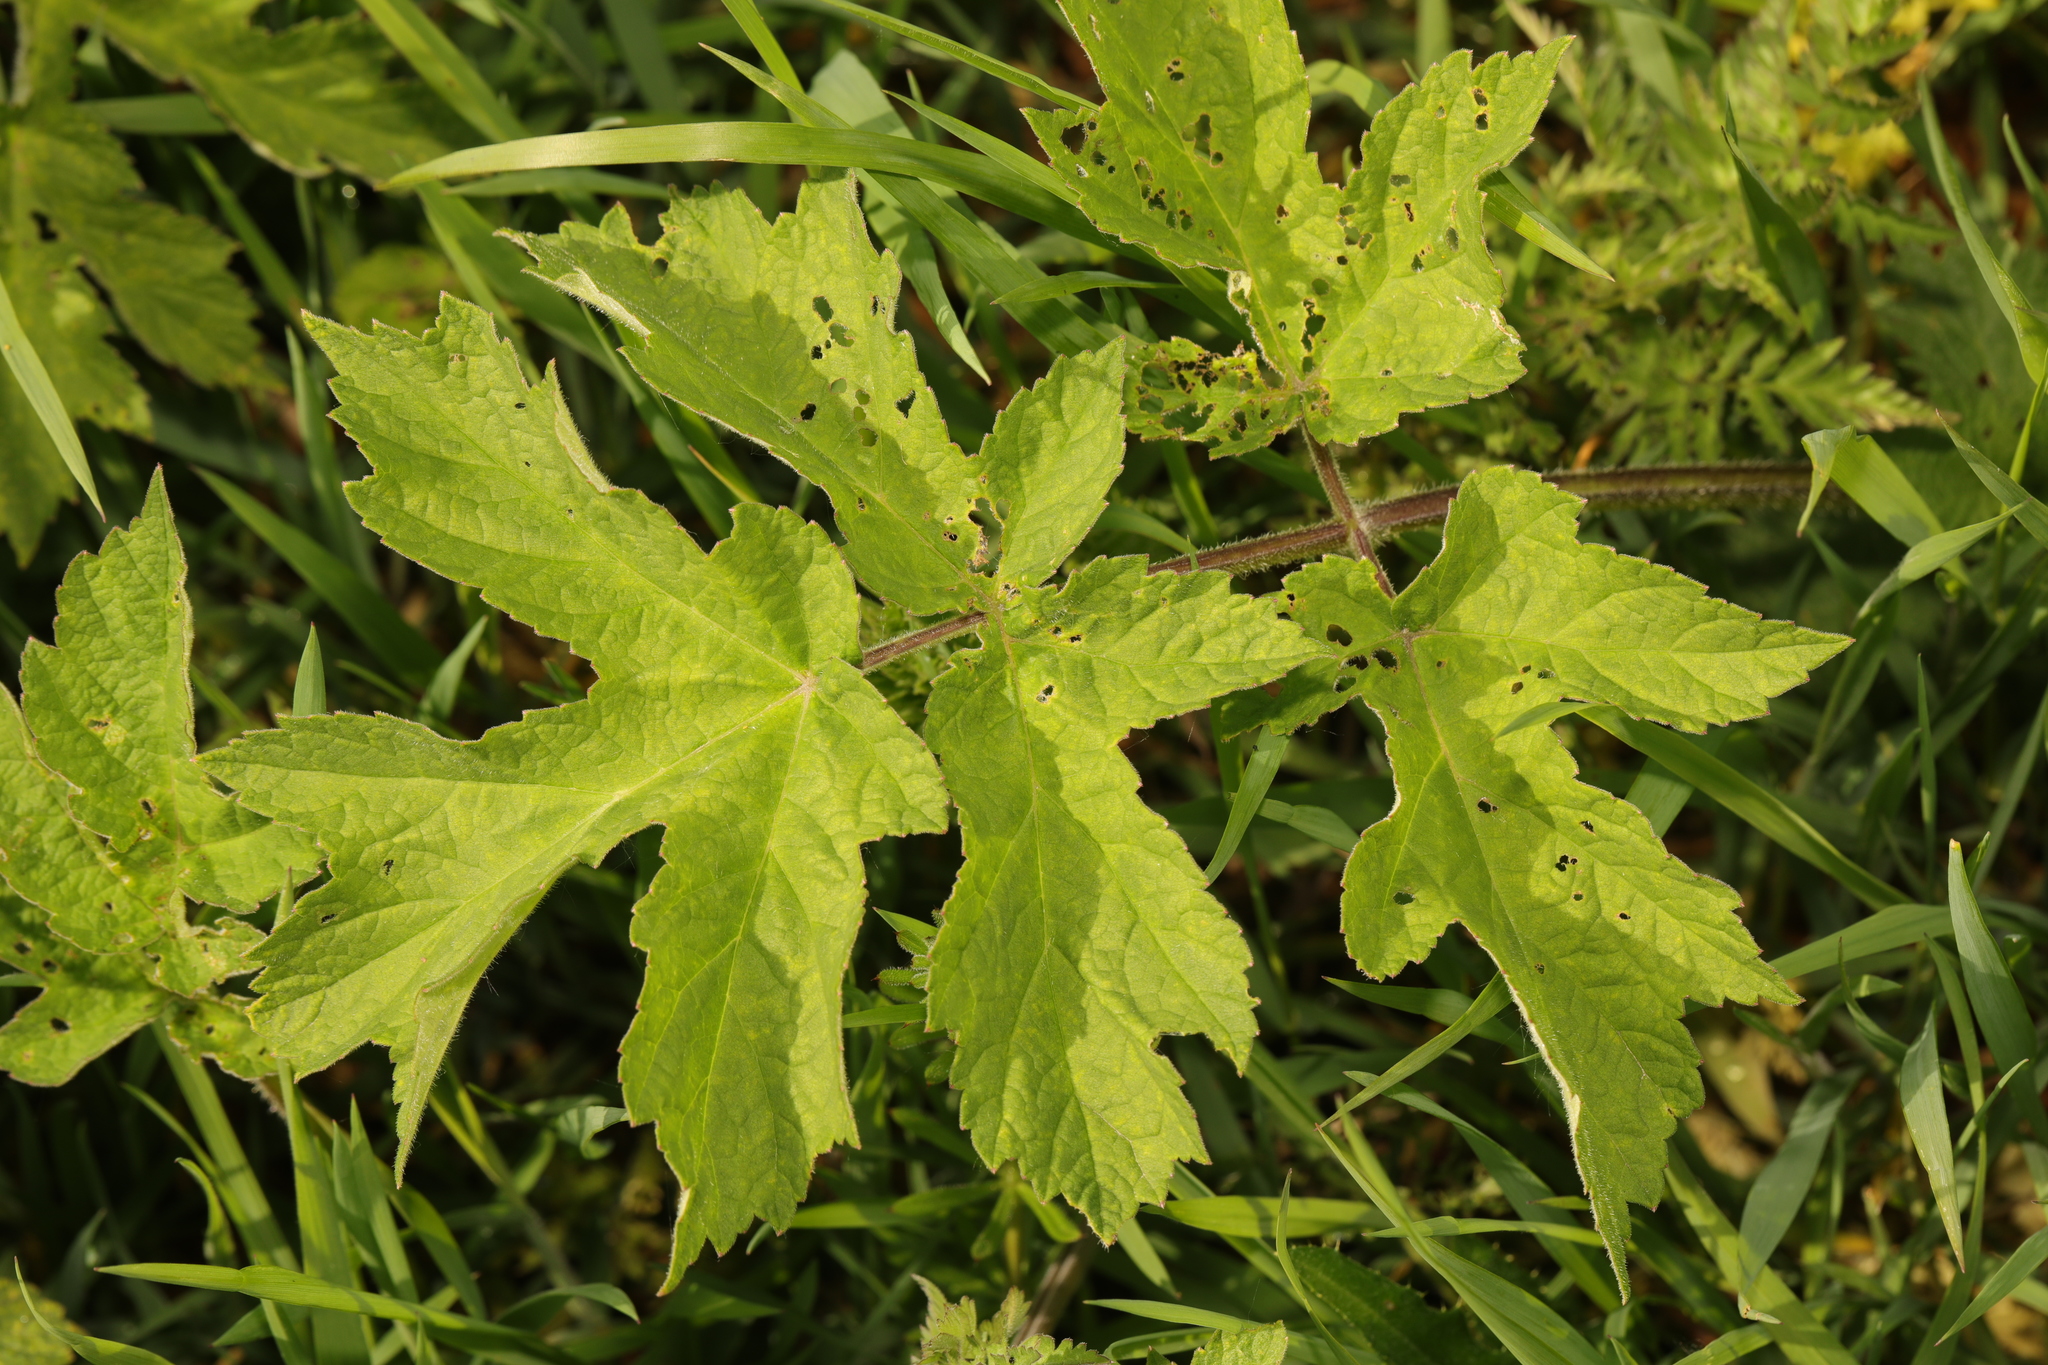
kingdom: Plantae
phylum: Tracheophyta
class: Magnoliopsida
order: Apiales
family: Apiaceae
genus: Heracleum
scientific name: Heracleum sphondylium
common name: Hogweed
